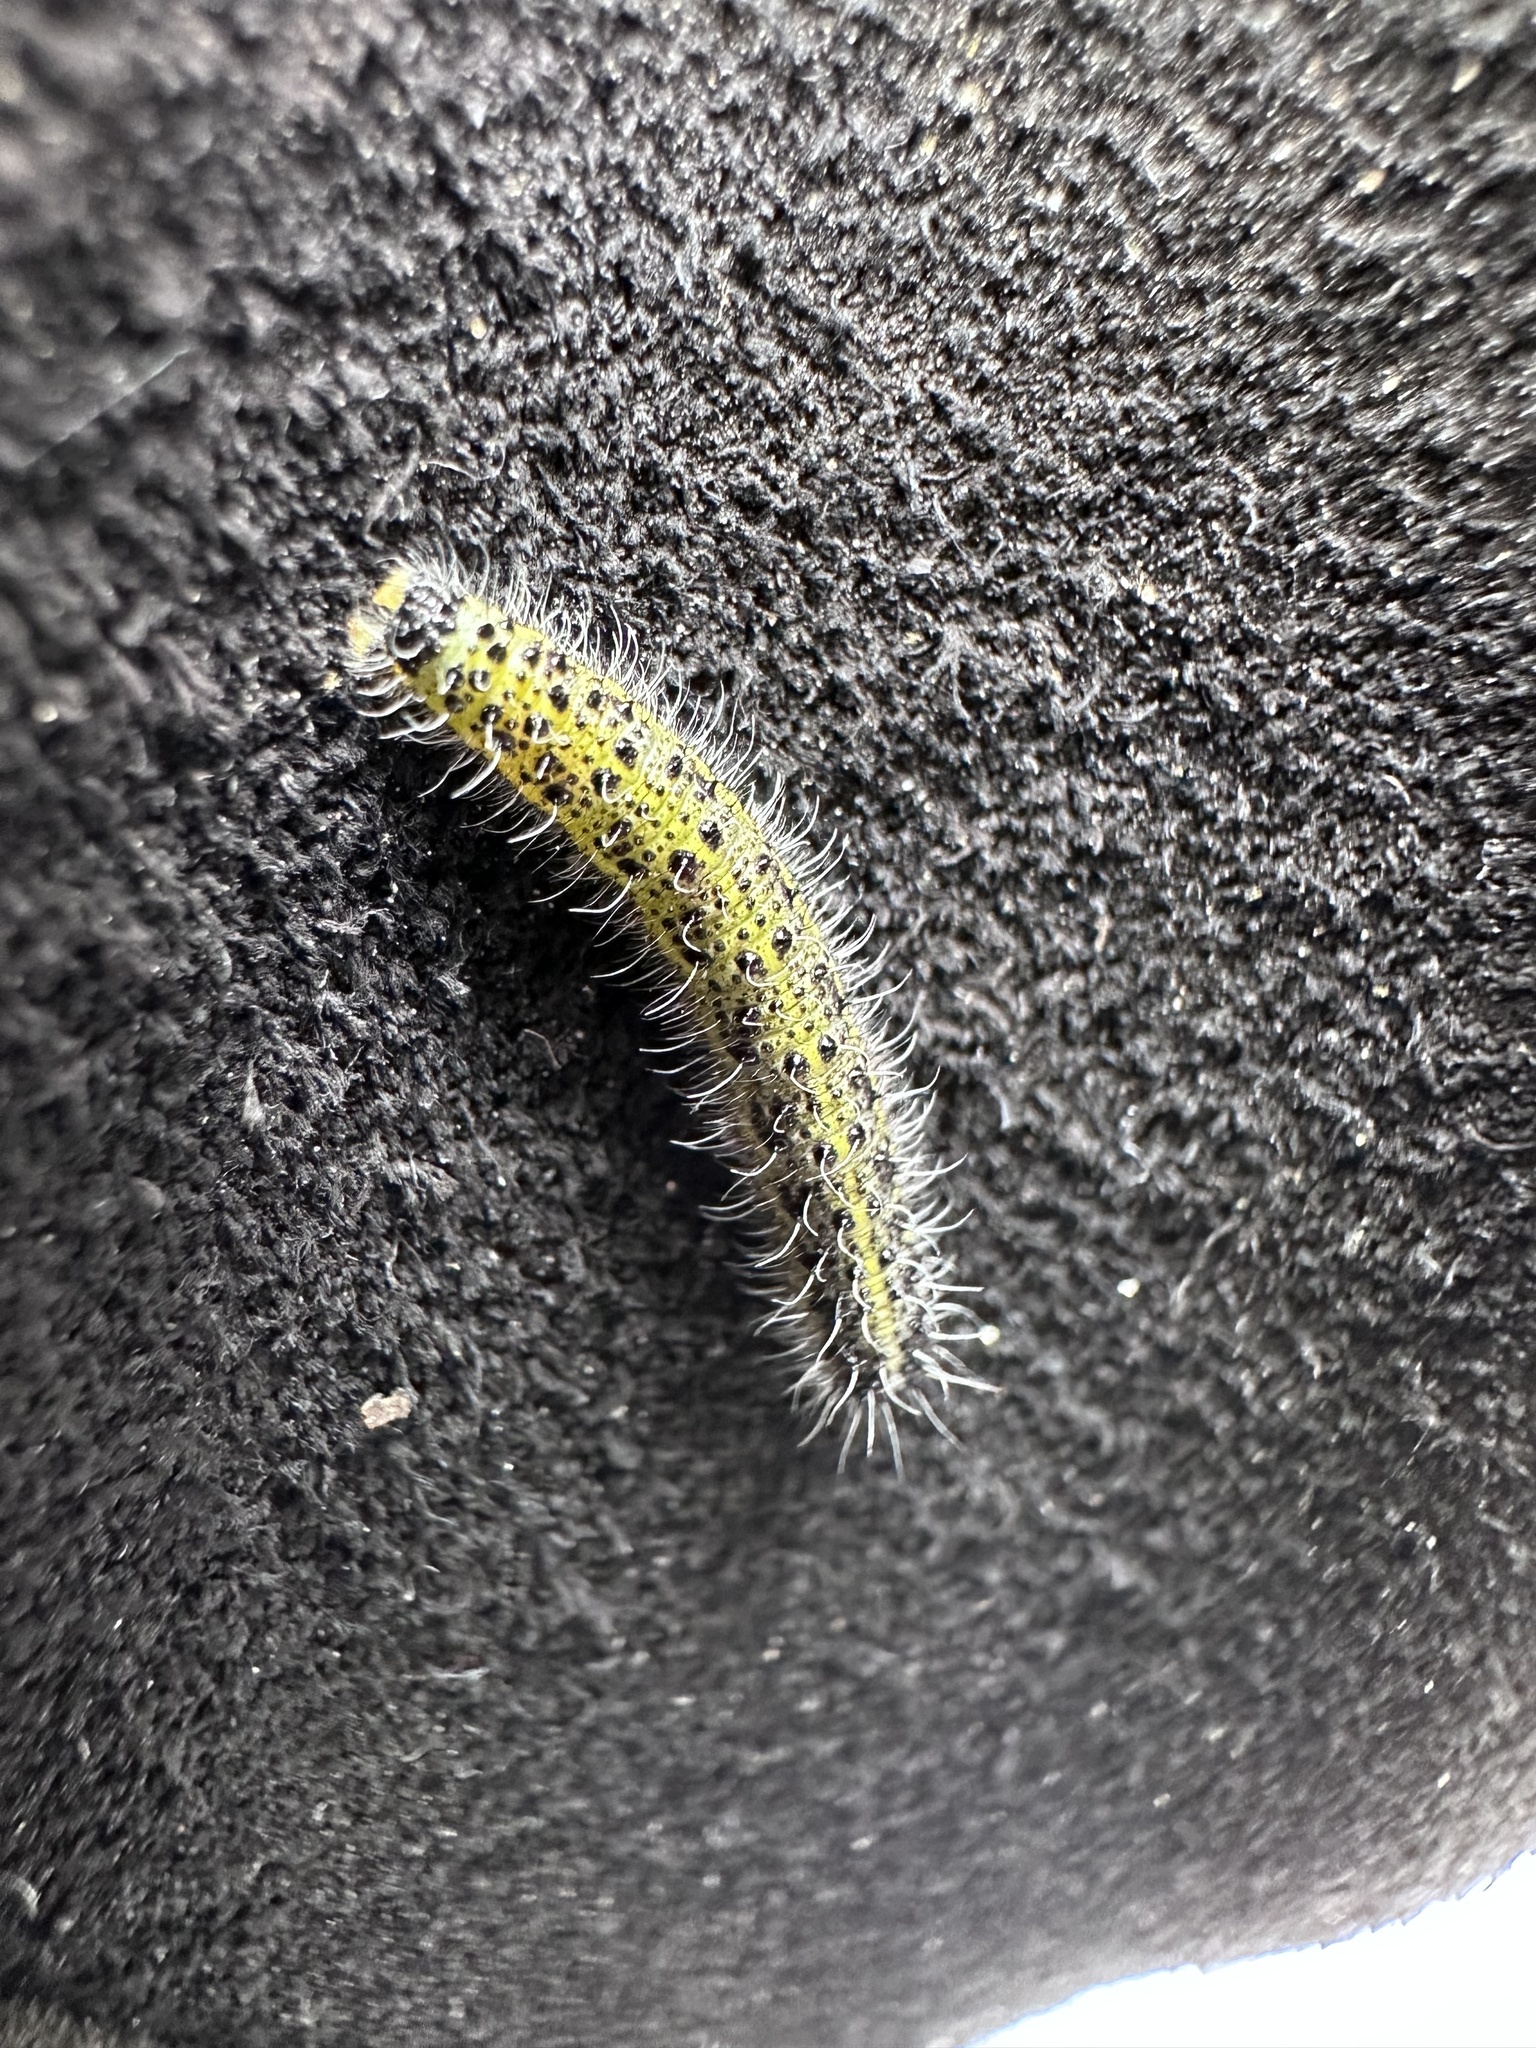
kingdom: Animalia
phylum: Arthropoda
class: Insecta
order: Lepidoptera
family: Pieridae
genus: Pieris
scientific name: Pieris brassicae
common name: Large white
